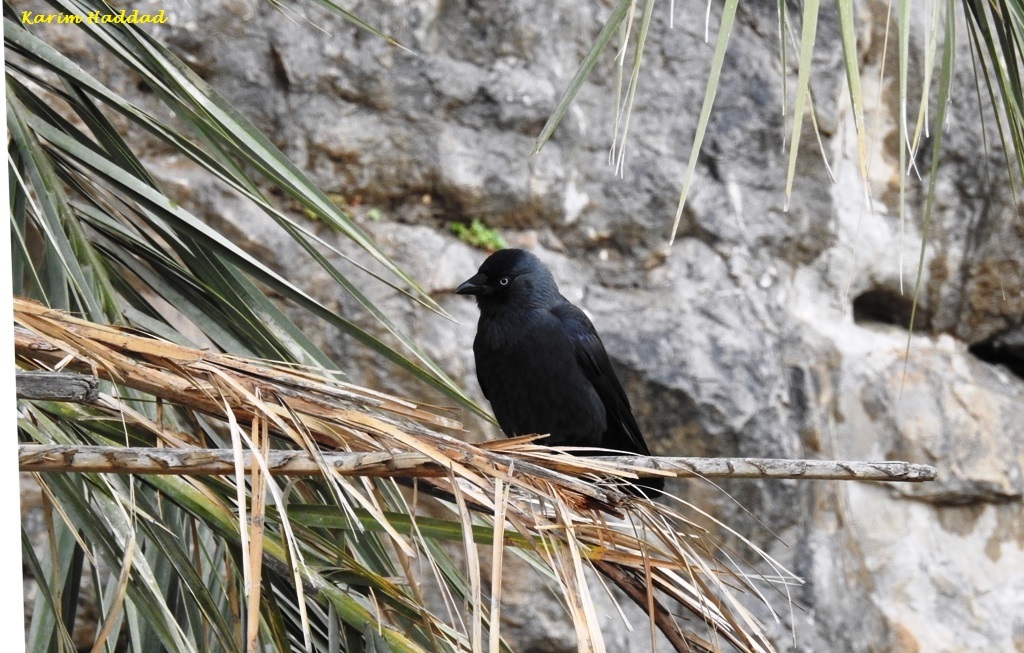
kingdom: Animalia
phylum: Chordata
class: Aves
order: Passeriformes
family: Corvidae
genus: Coloeus
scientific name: Coloeus monedula
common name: Western jackdaw
